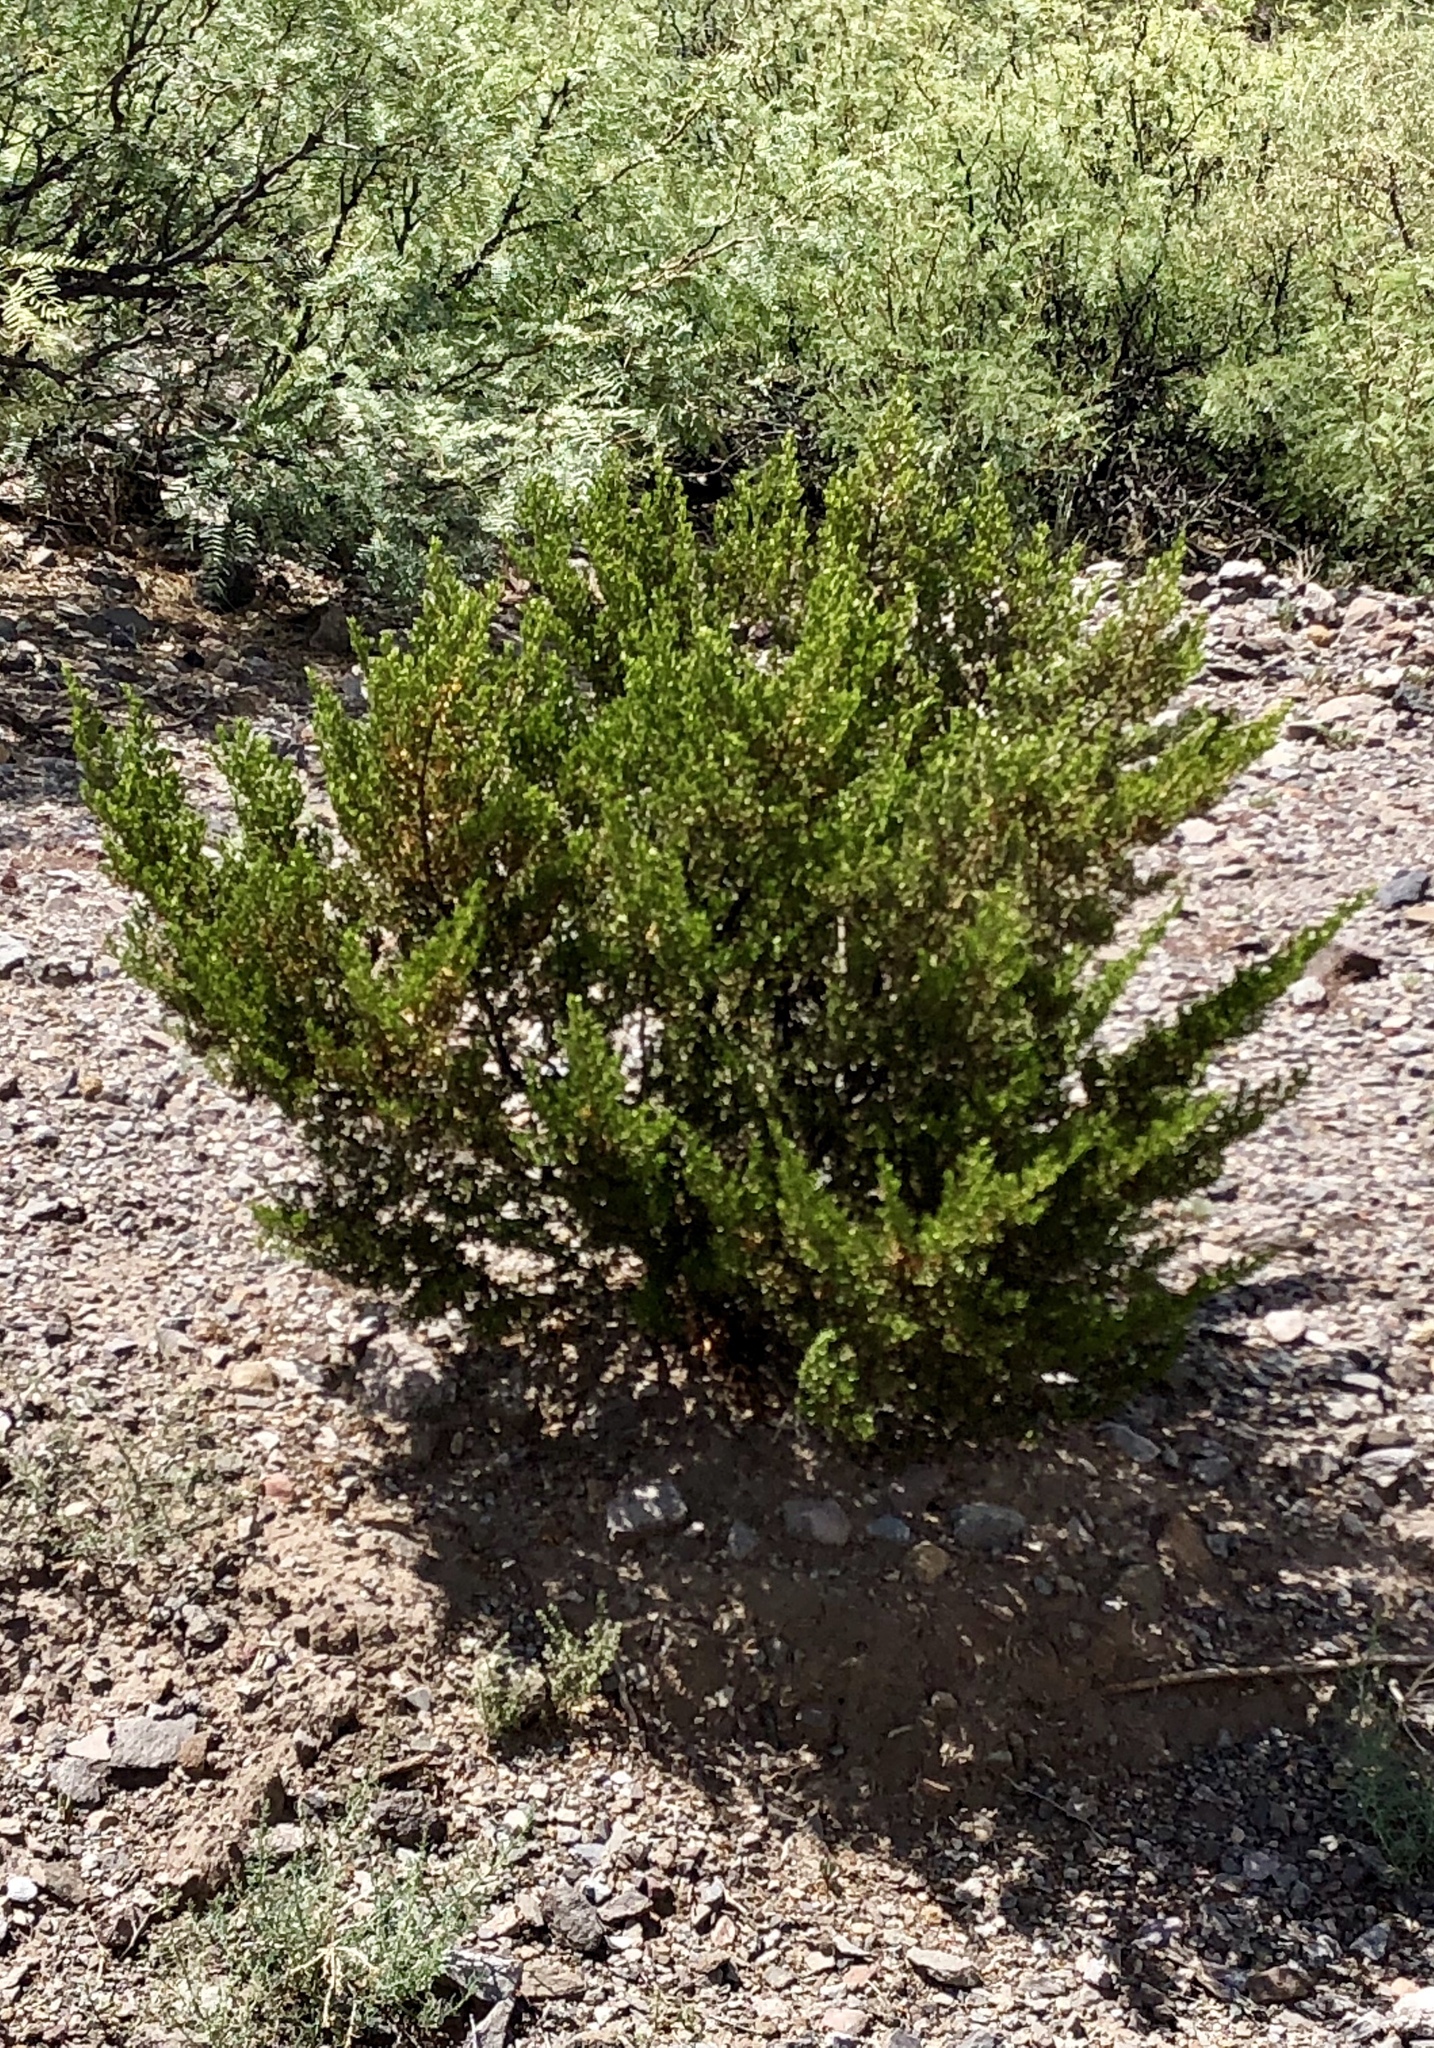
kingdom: Plantae
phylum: Tracheophyta
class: Magnoliopsida
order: Zygophyllales
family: Zygophyllaceae
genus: Larrea
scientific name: Larrea tridentata
